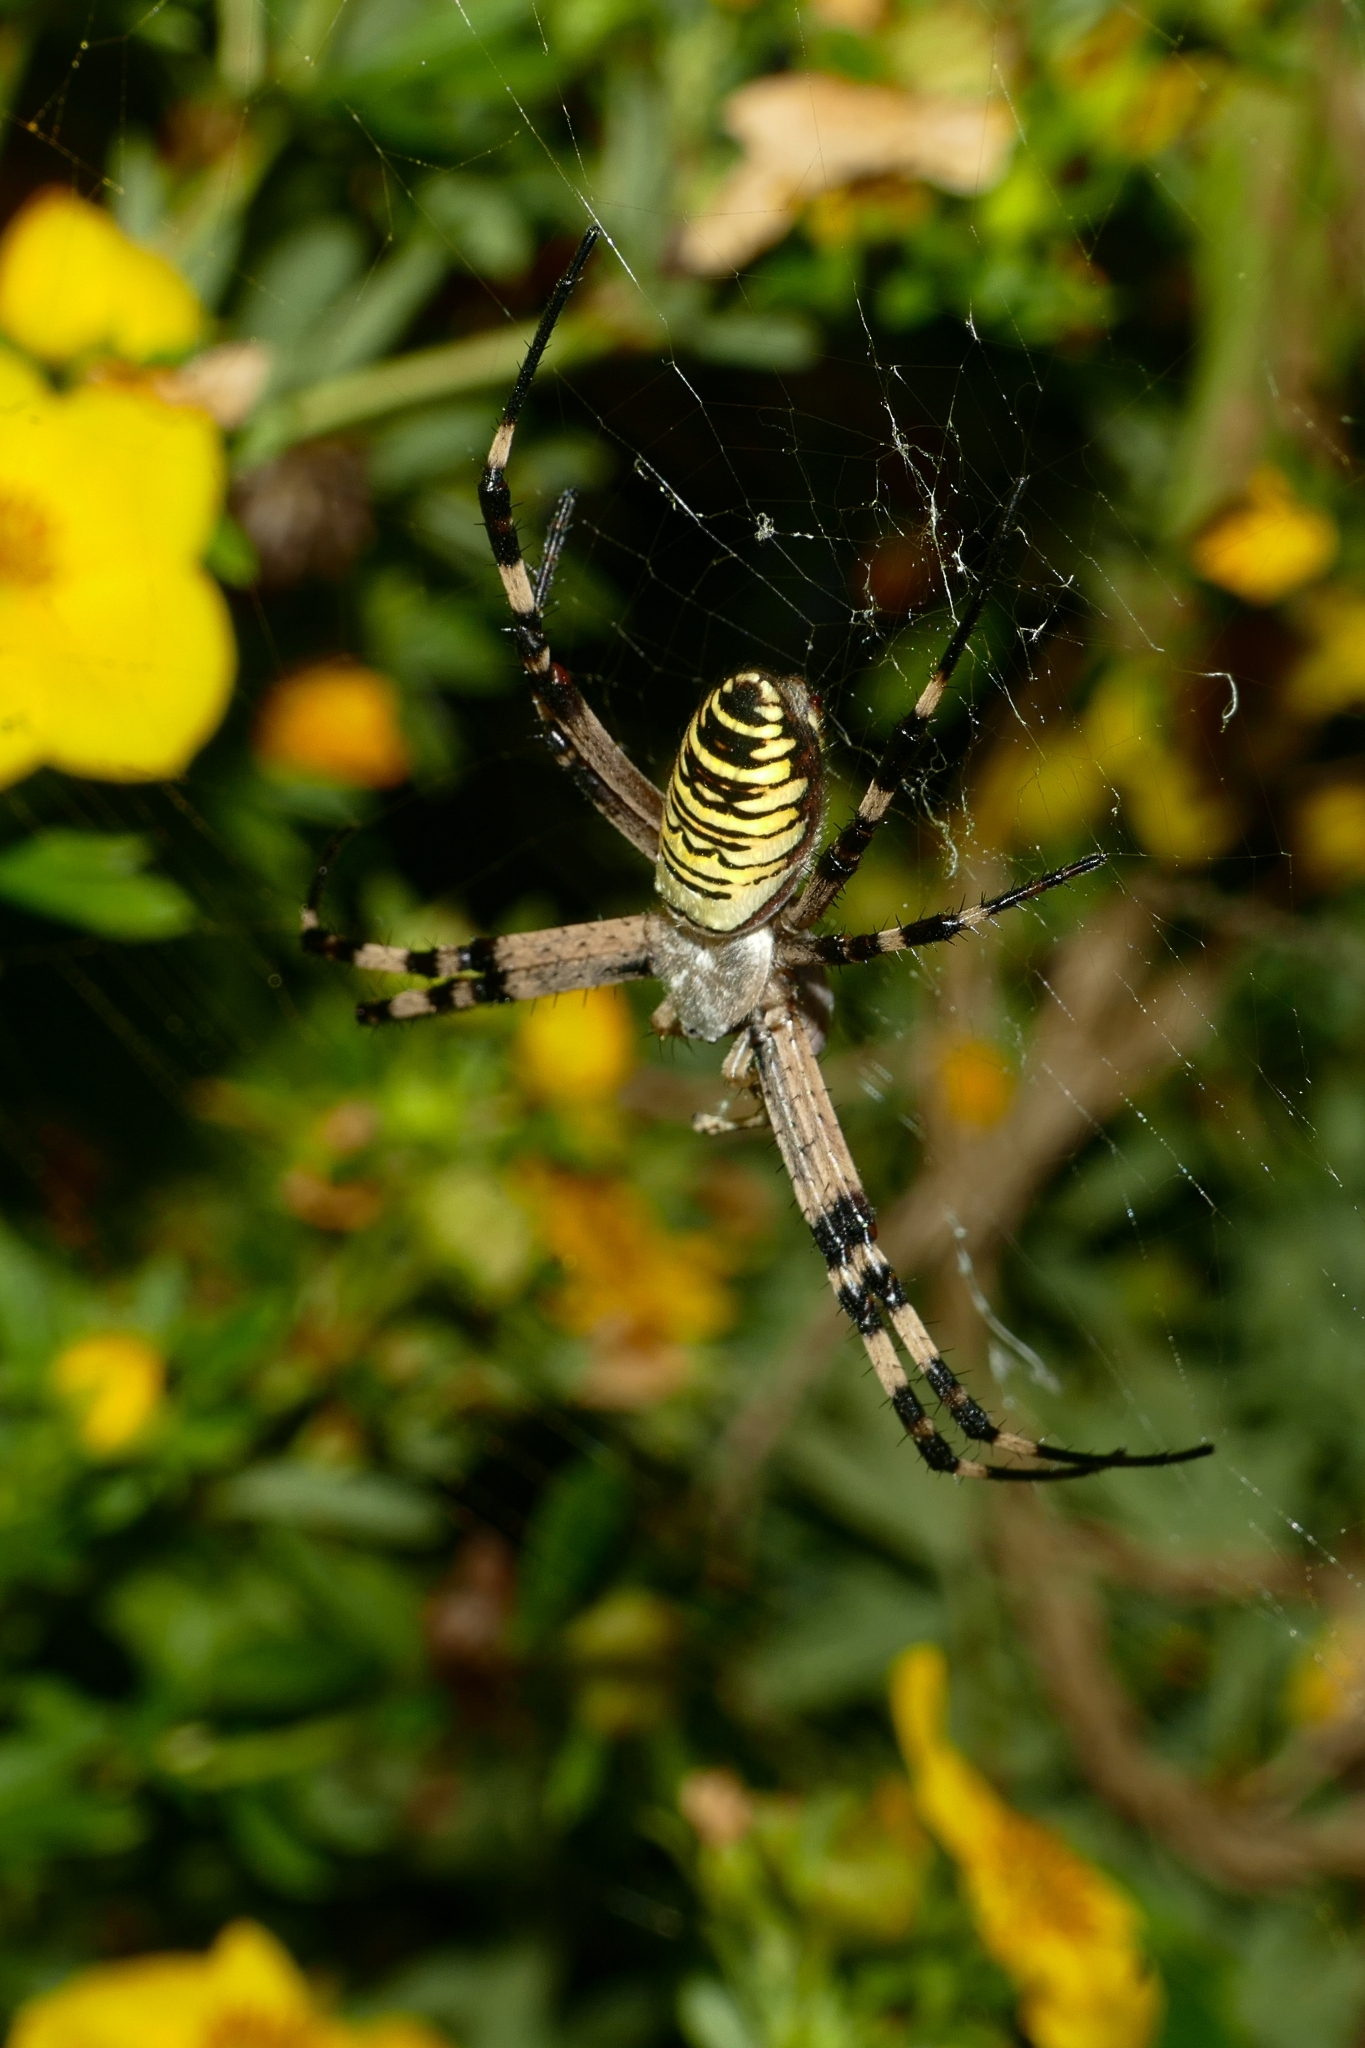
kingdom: Animalia
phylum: Arthropoda
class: Arachnida
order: Araneae
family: Araneidae
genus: Argiope
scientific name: Argiope bruennichi
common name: Wasp spider
